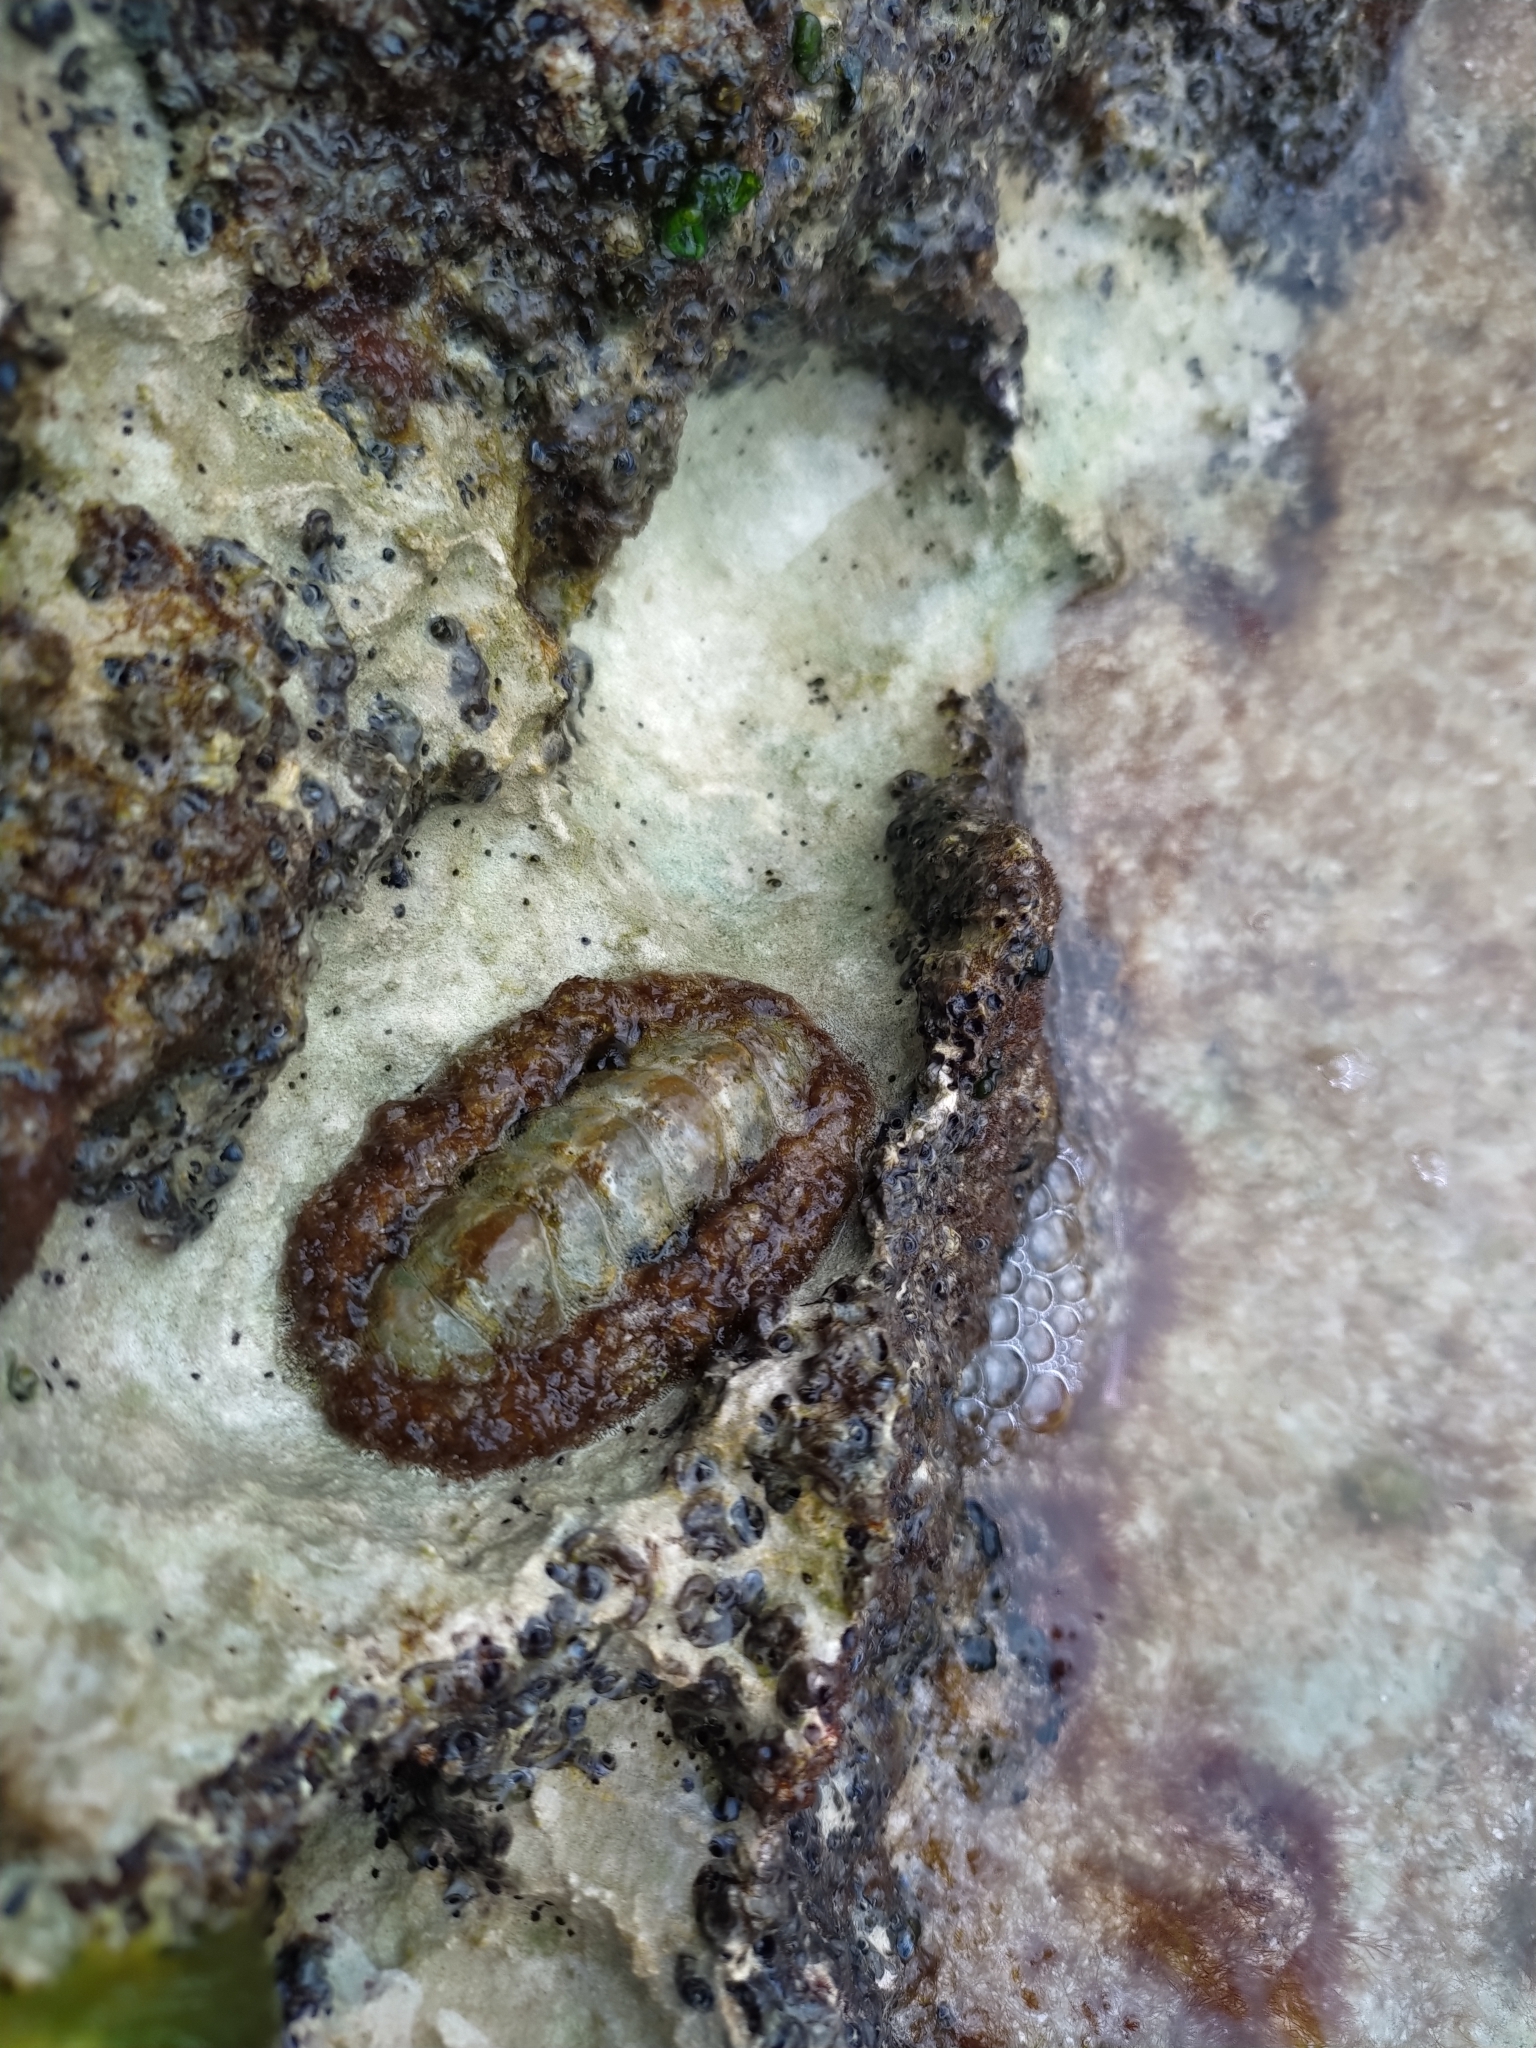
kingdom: Animalia
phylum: Mollusca
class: Polyplacophora
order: Chitonida
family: Chitonidae
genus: Acanthopleura
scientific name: Acanthopleura granulata
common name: West indian fuzzy chiton
